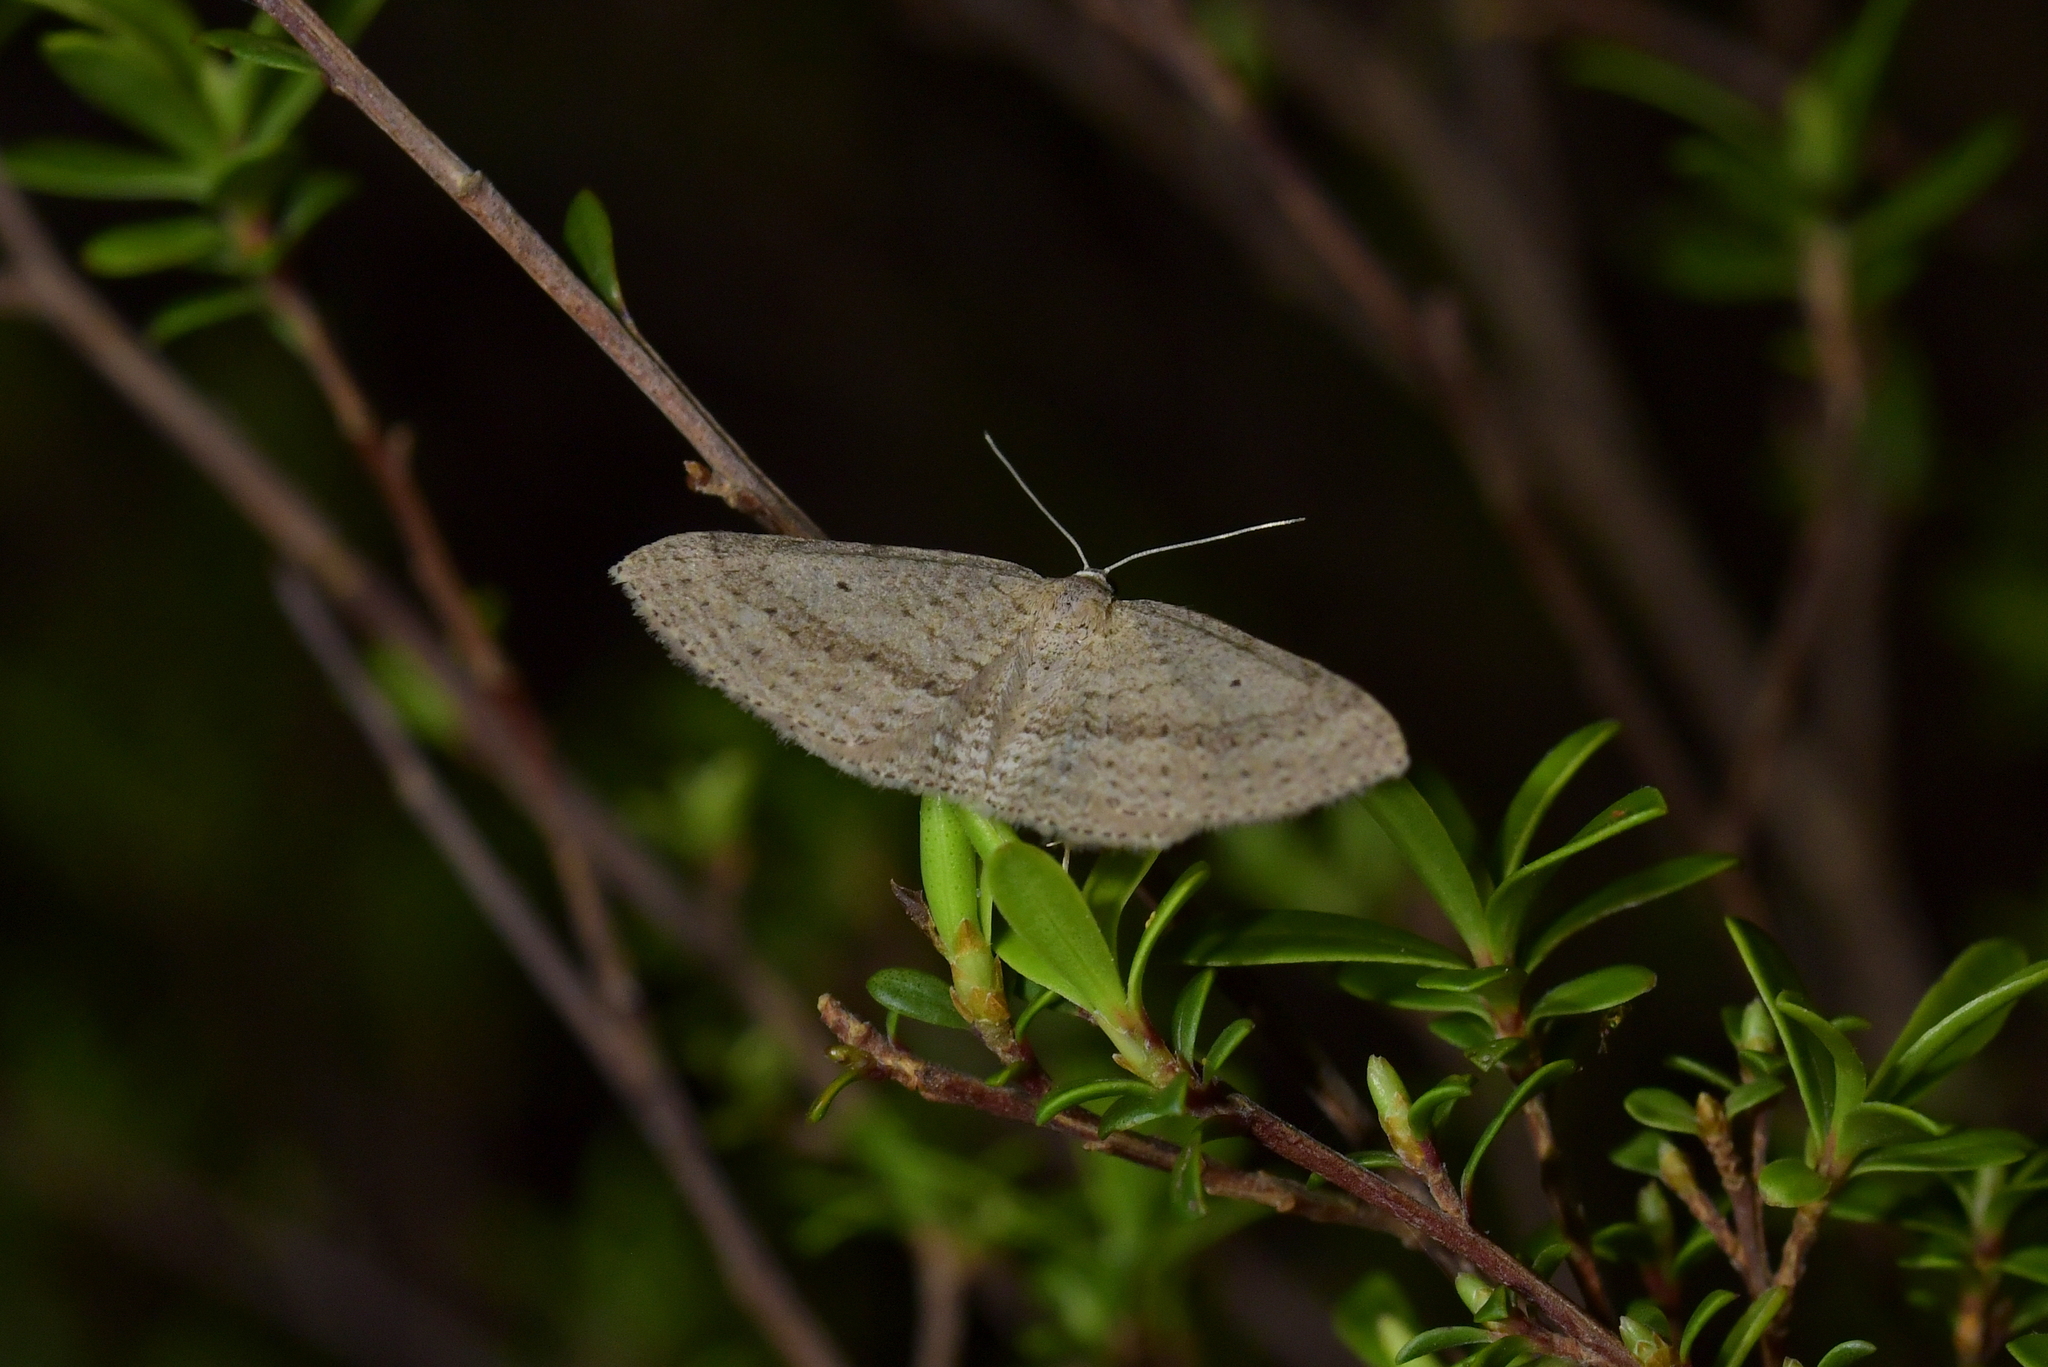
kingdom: Animalia
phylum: Arthropoda
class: Insecta
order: Lepidoptera
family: Geometridae
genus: Poecilasthena
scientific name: Poecilasthena schistaria
